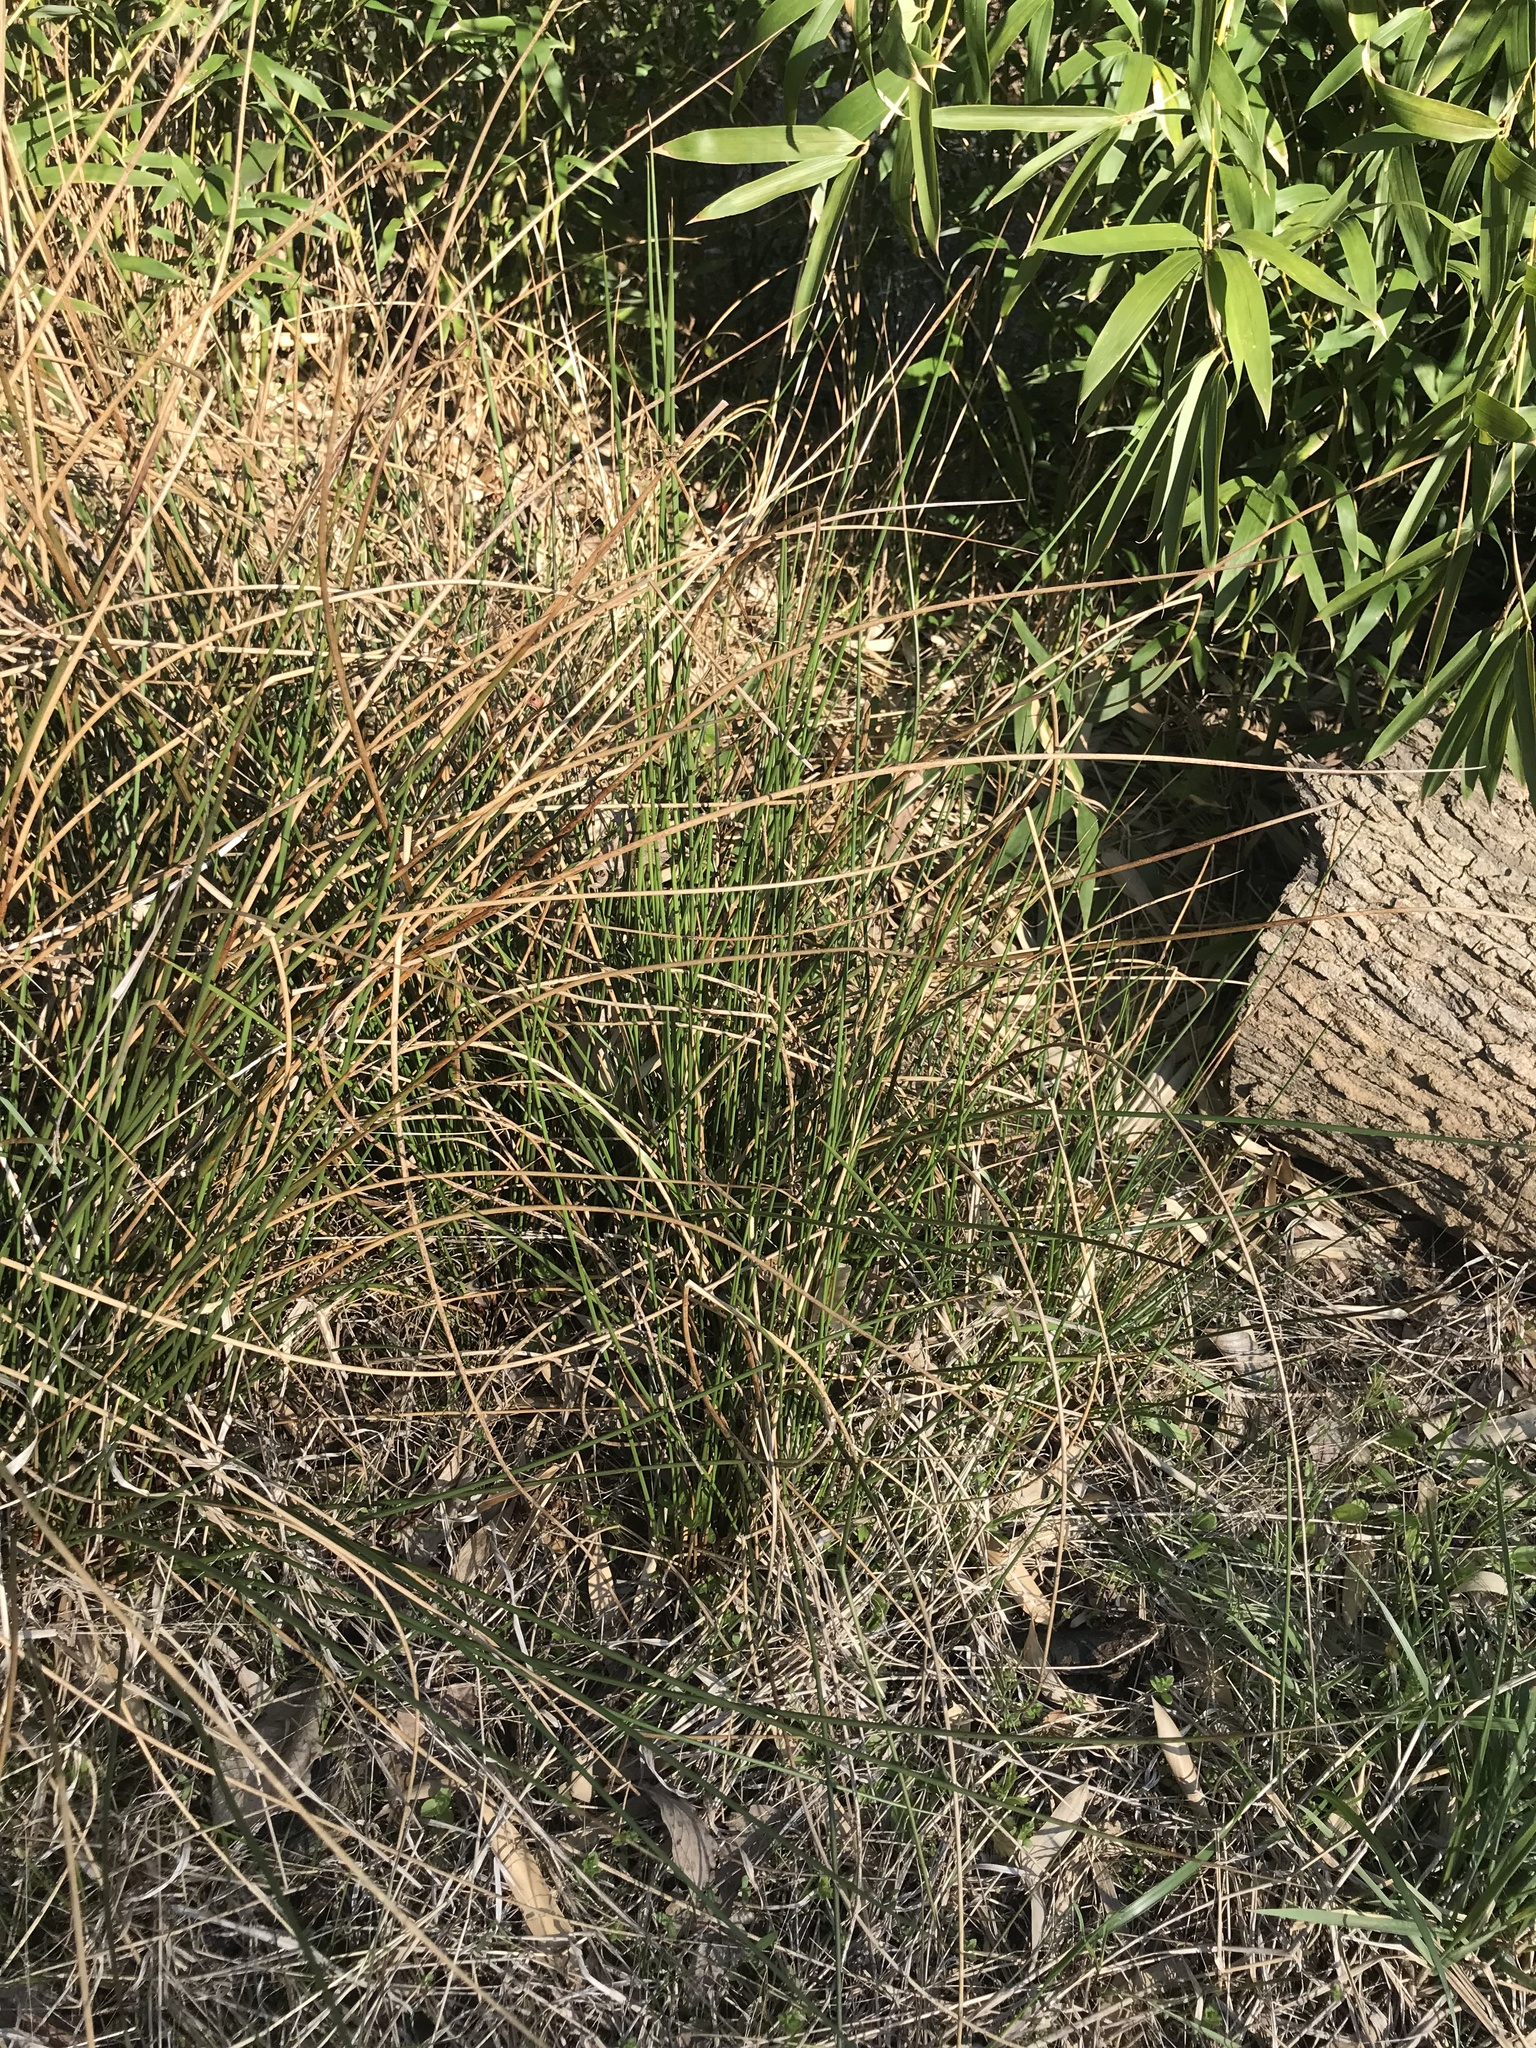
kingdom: Plantae
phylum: Tracheophyta
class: Liliopsida
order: Poales
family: Juncaceae
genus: Juncus
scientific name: Juncus effusus
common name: Soft rush
